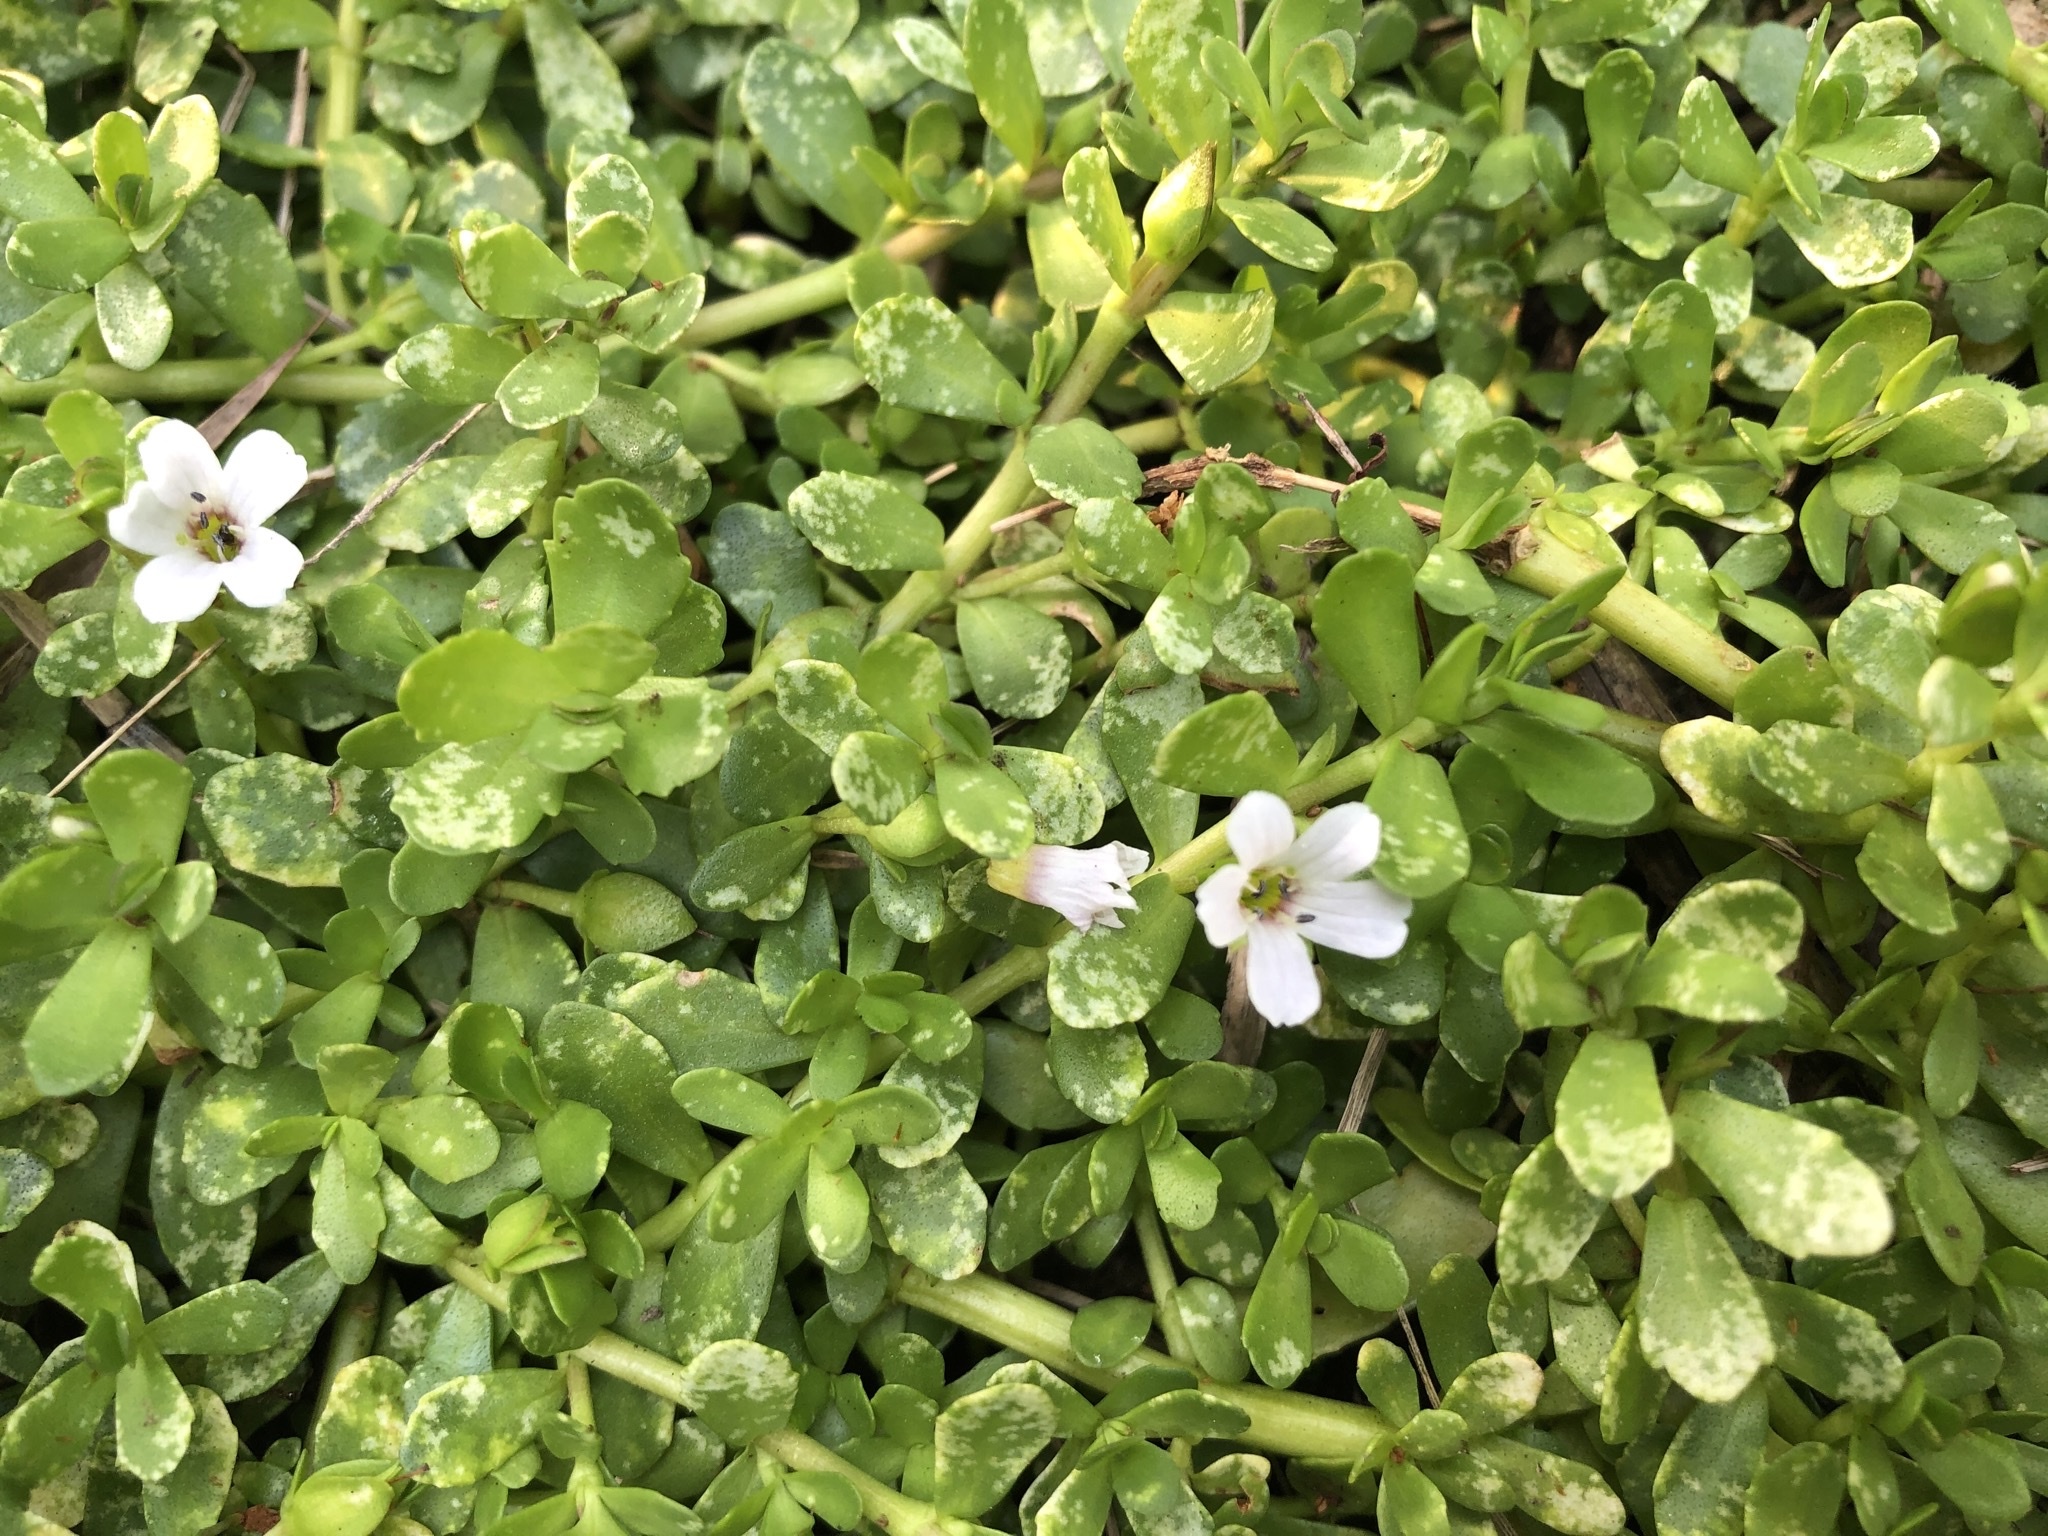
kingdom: Plantae
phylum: Tracheophyta
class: Magnoliopsida
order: Lamiales
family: Plantaginaceae
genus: Bacopa
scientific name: Bacopa monnieri
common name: Indian-pennywort
